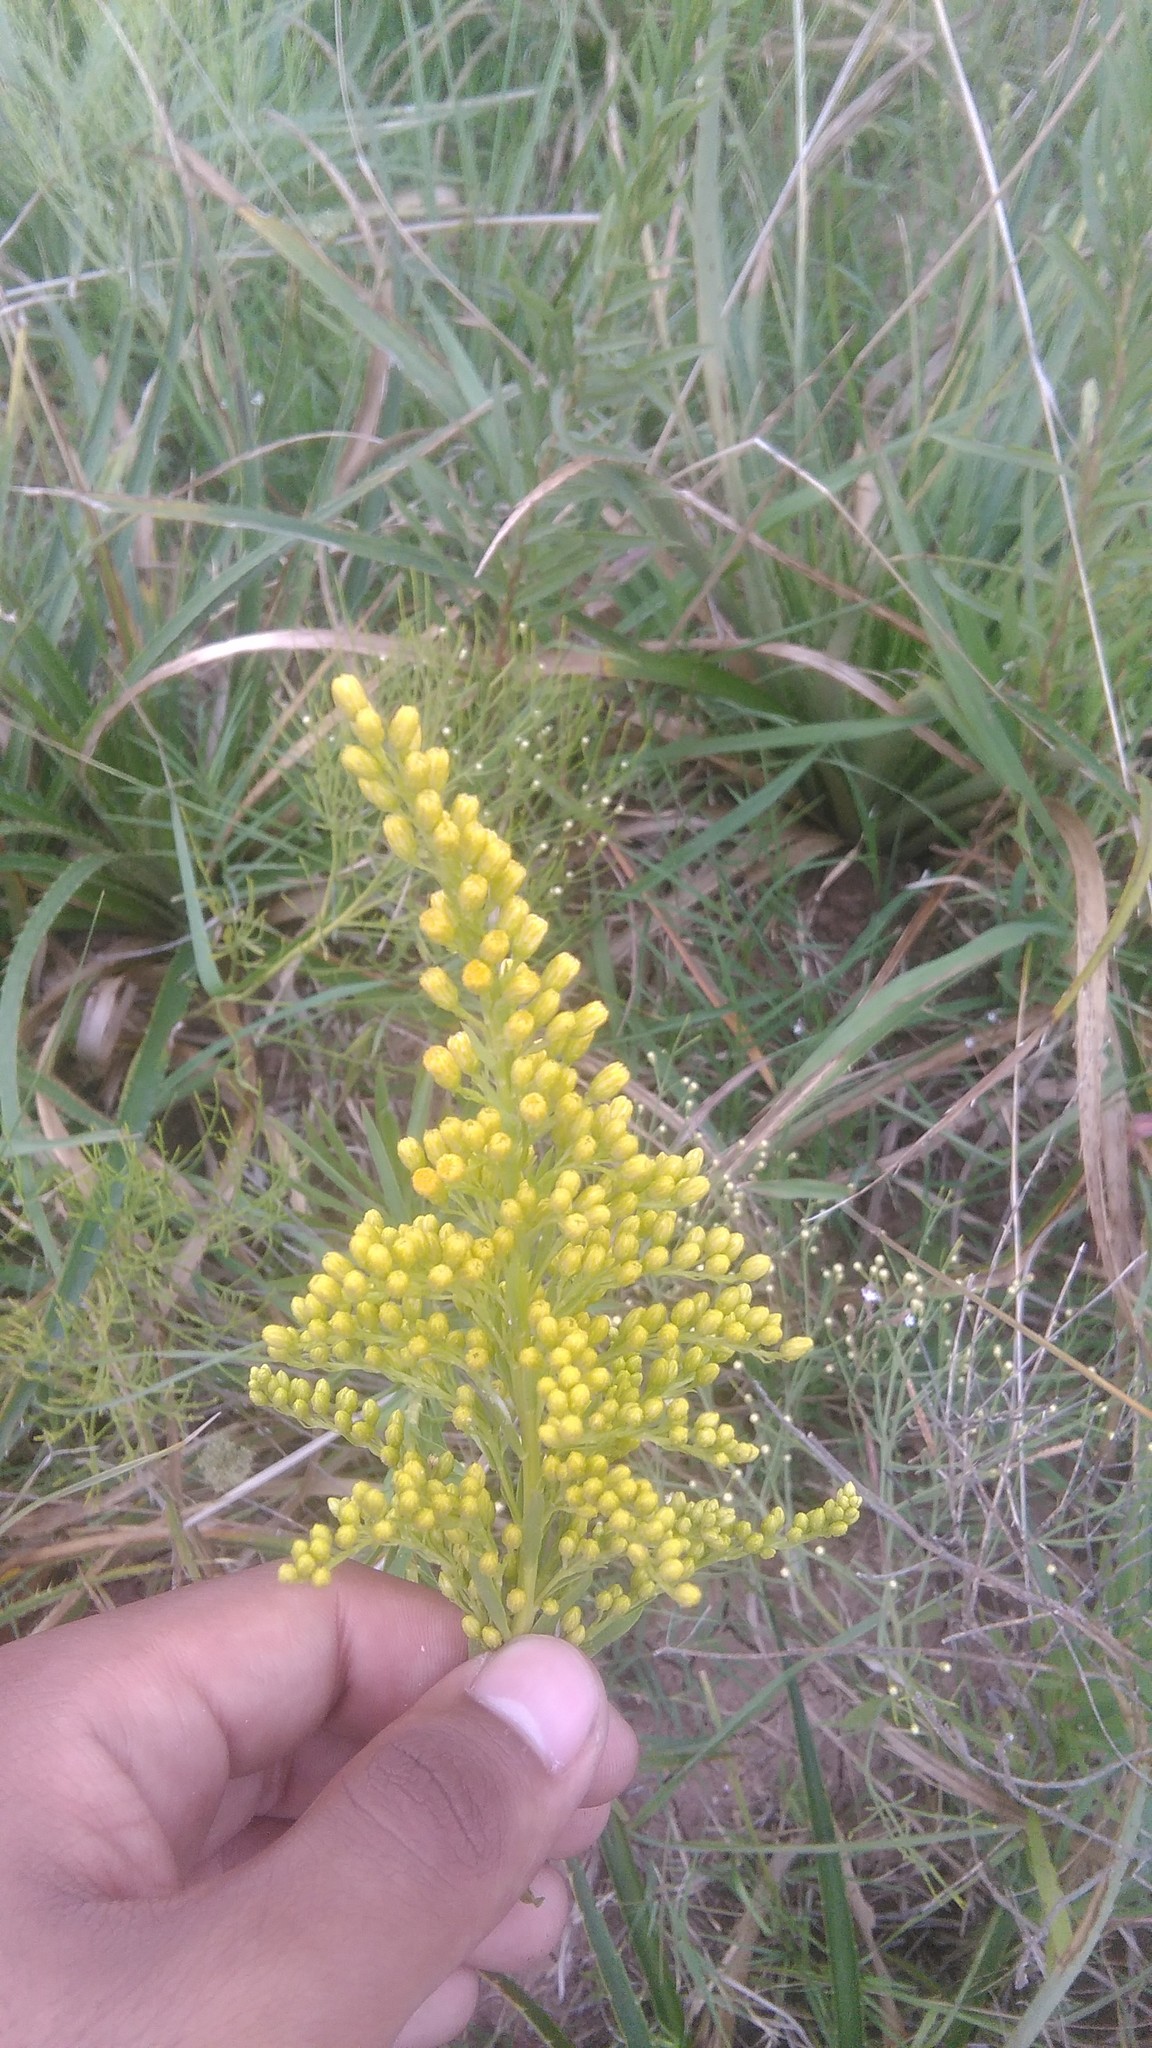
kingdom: Plantae
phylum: Tracheophyta
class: Magnoliopsida
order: Asterales
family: Asteraceae
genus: Solidago
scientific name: Solidago chilensis
